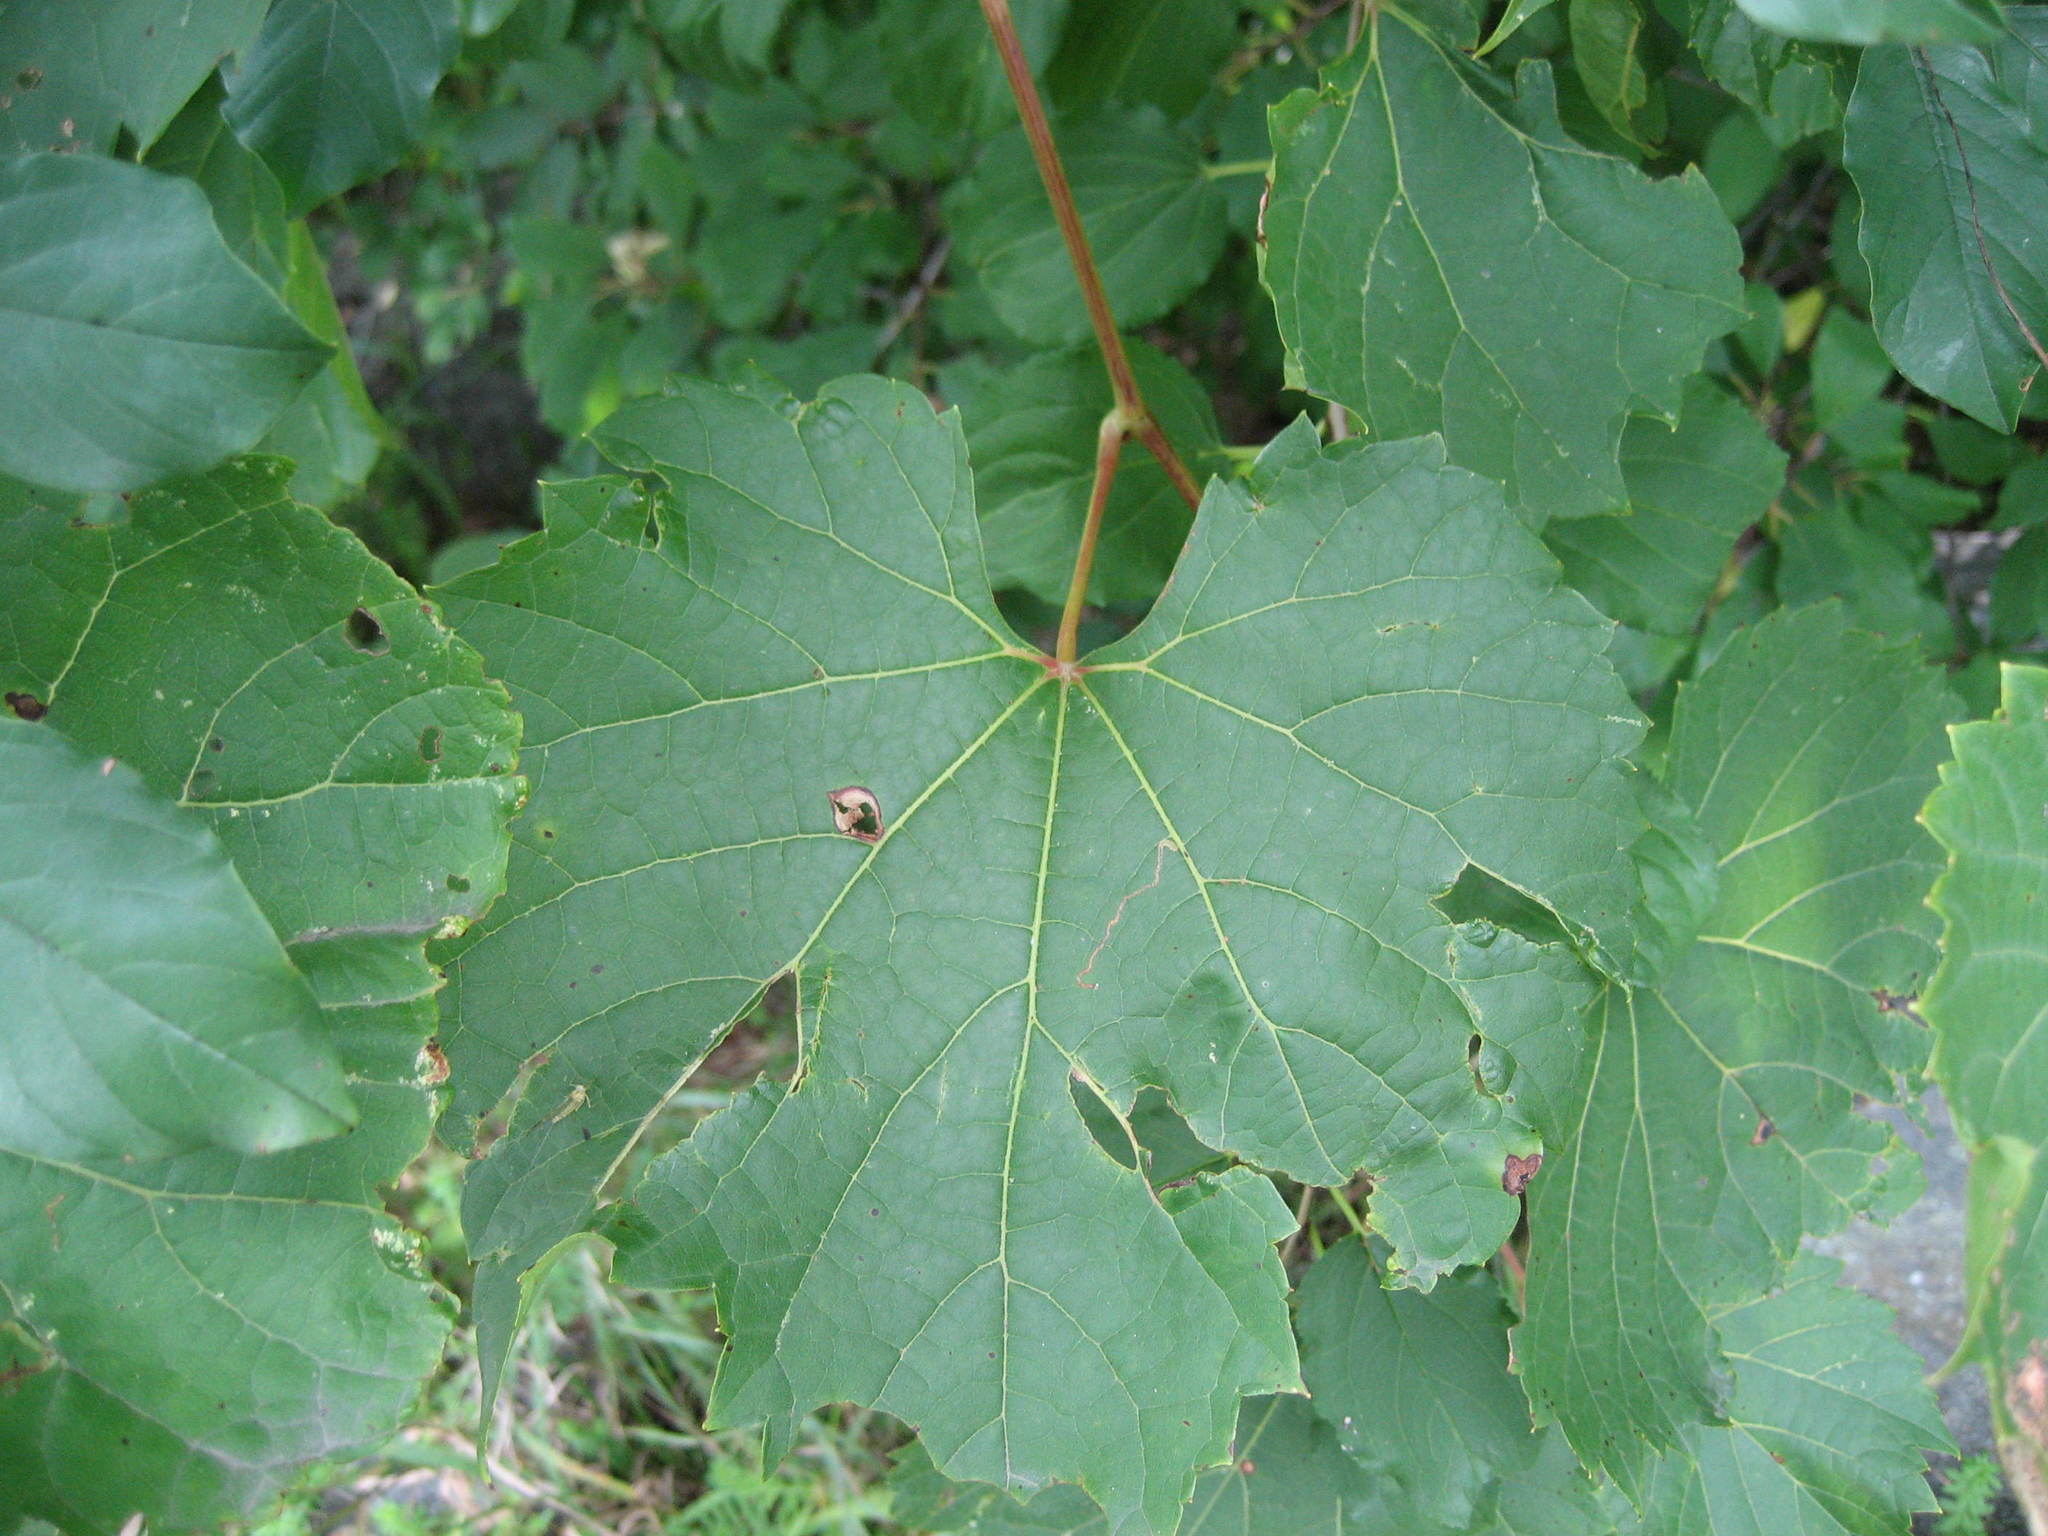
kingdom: Plantae
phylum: Tracheophyta
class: Magnoliopsida
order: Vitales
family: Vitaceae
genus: Vitis
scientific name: Vitis riparia
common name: Frost grape
